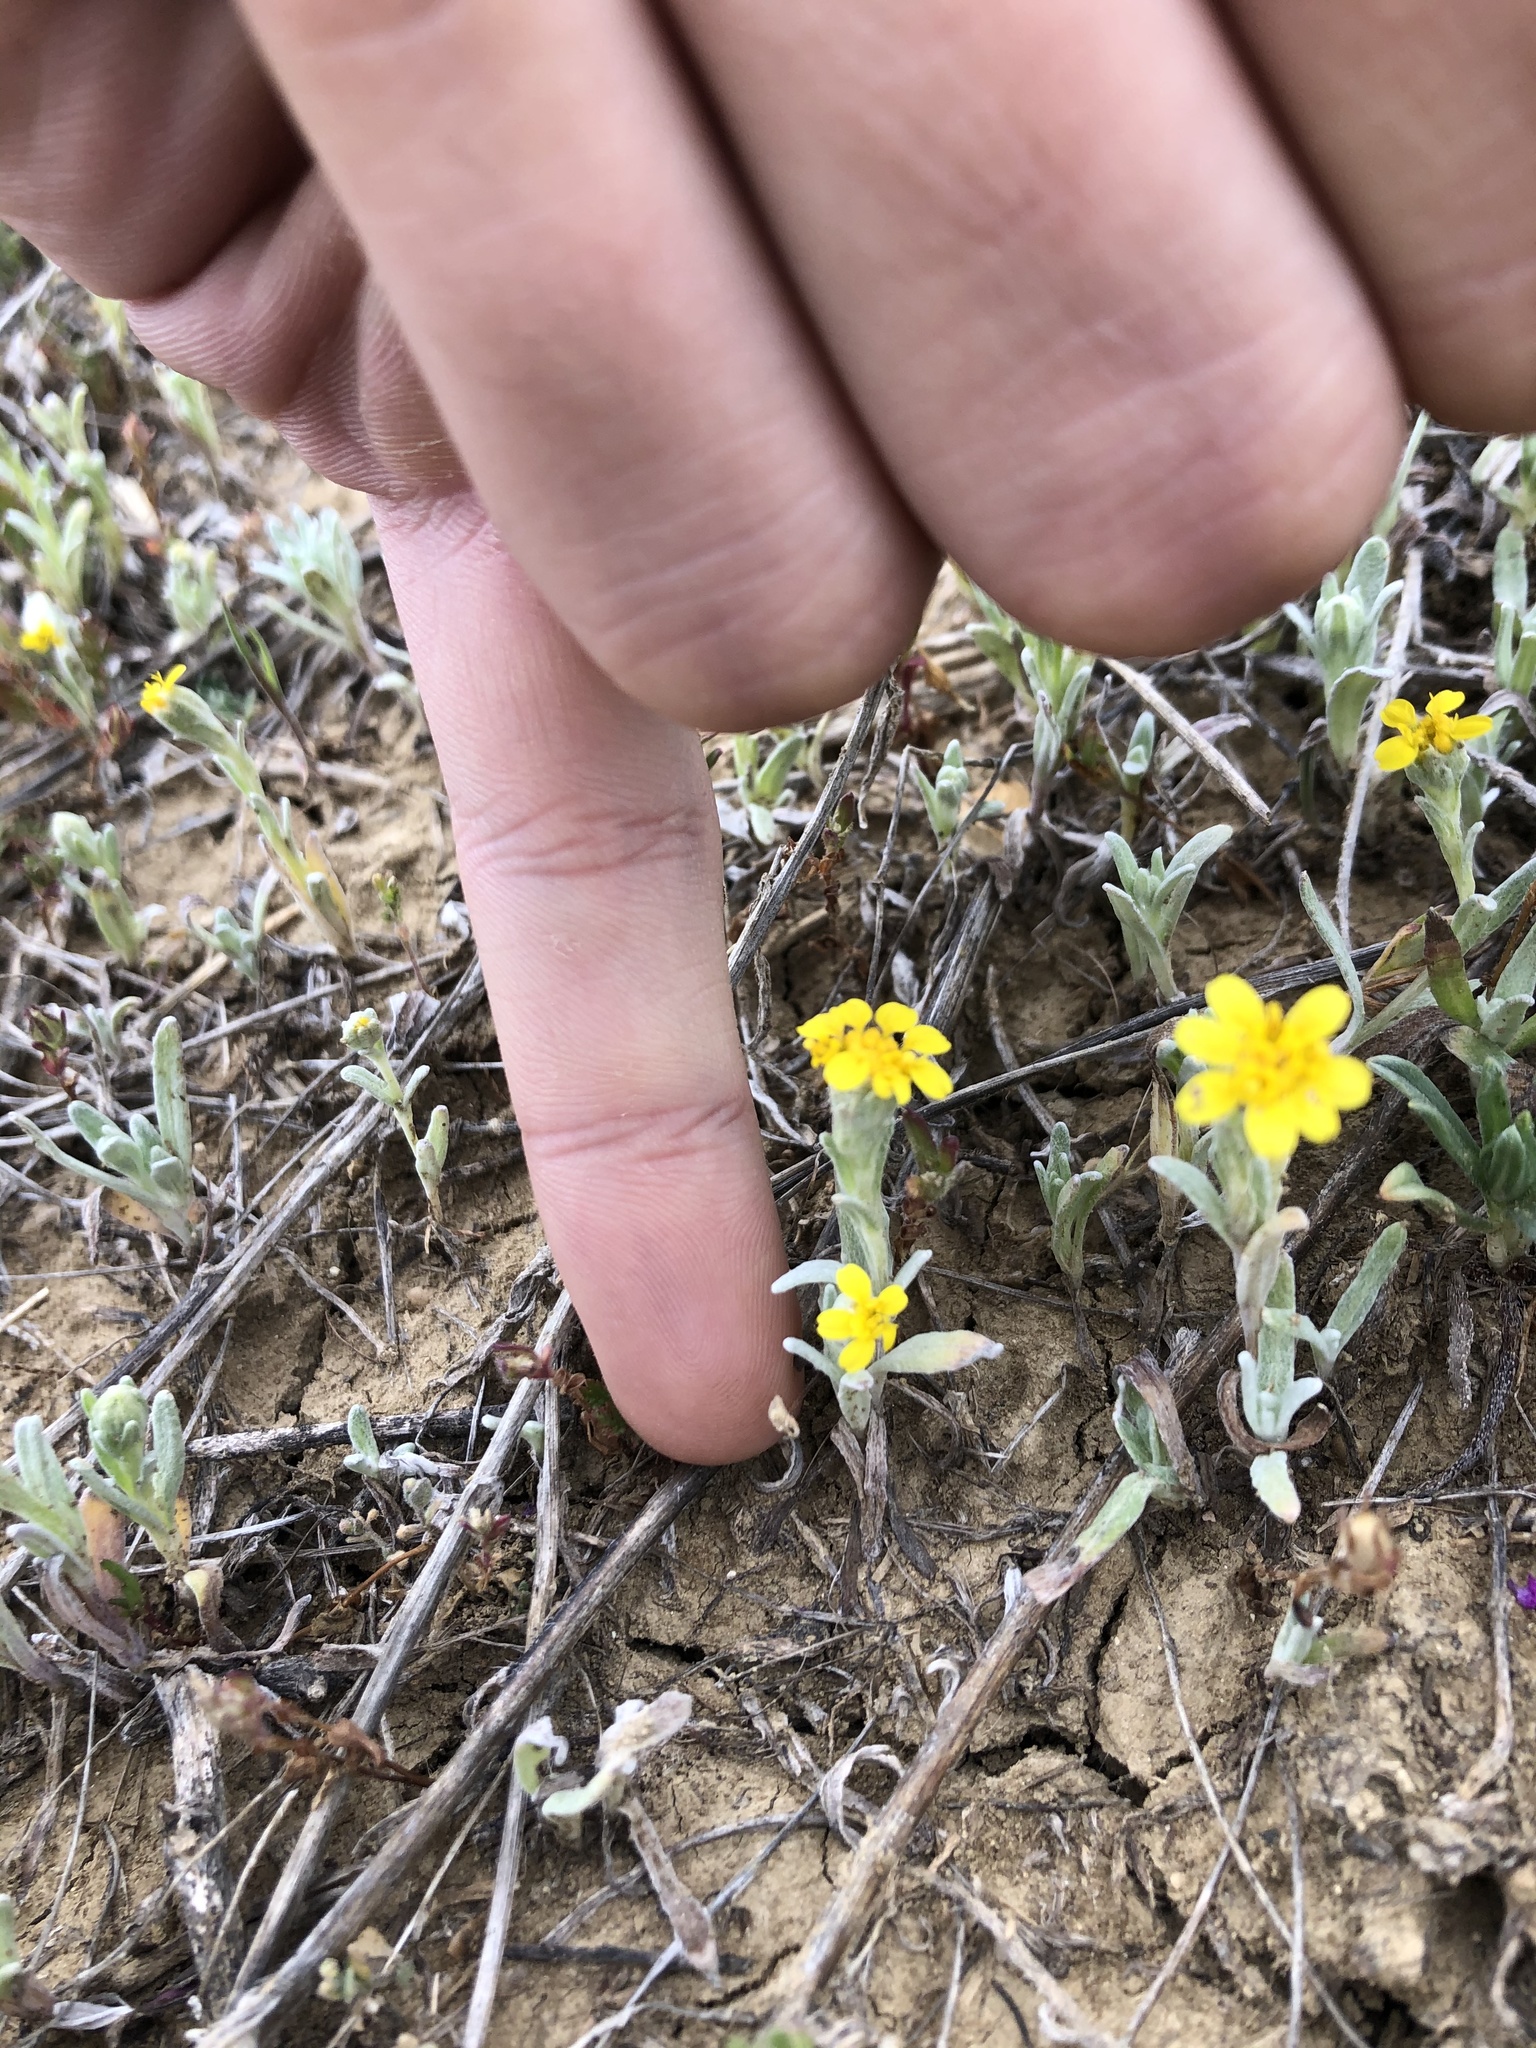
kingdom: Plantae
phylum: Tracheophyta
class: Magnoliopsida
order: Asterales
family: Asteraceae
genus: Monolopia
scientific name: Monolopia stricta
